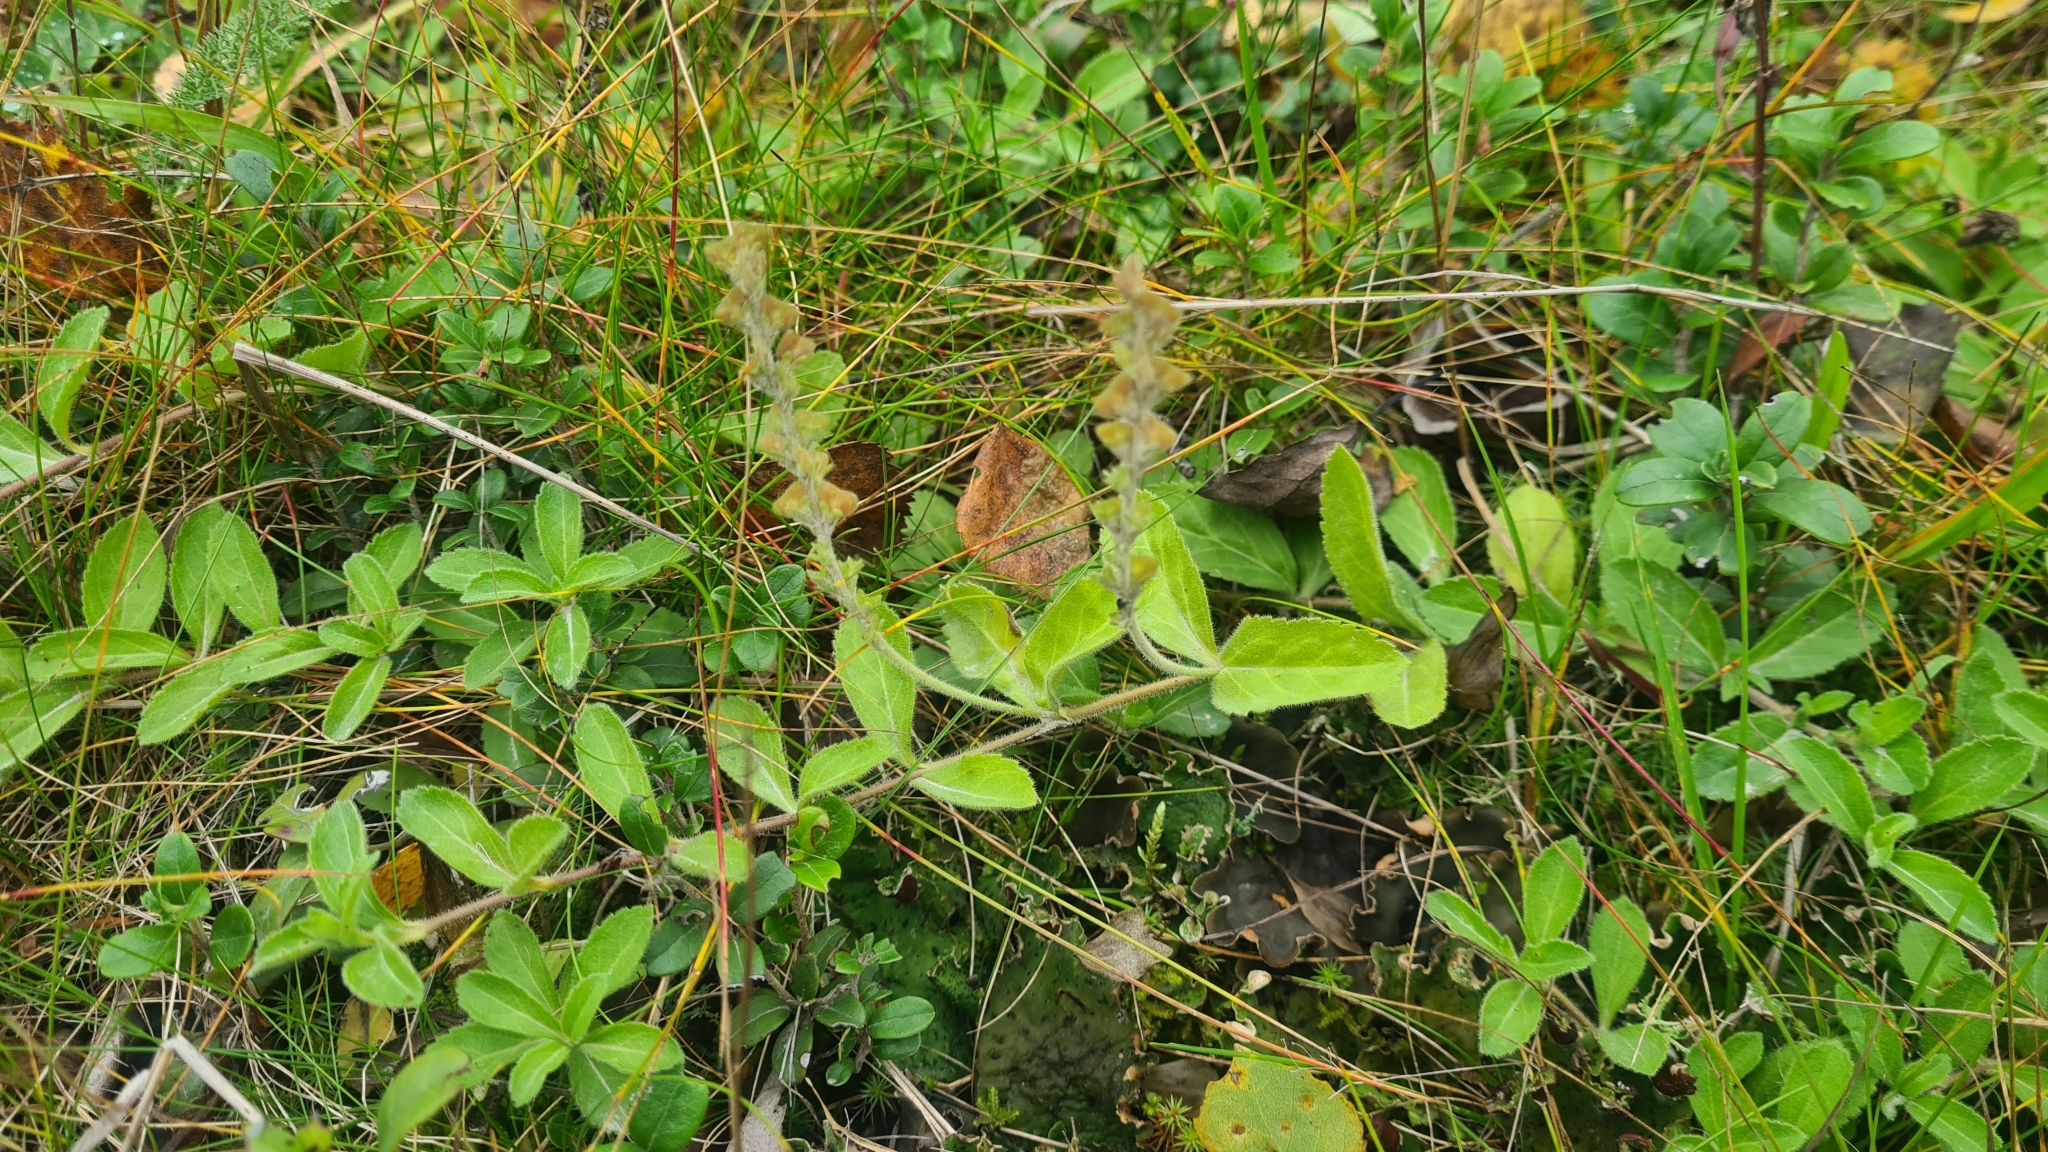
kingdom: Plantae
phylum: Tracheophyta
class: Magnoliopsida
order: Lamiales
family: Plantaginaceae
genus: Veronica
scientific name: Veronica officinalis
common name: Common speedwell
